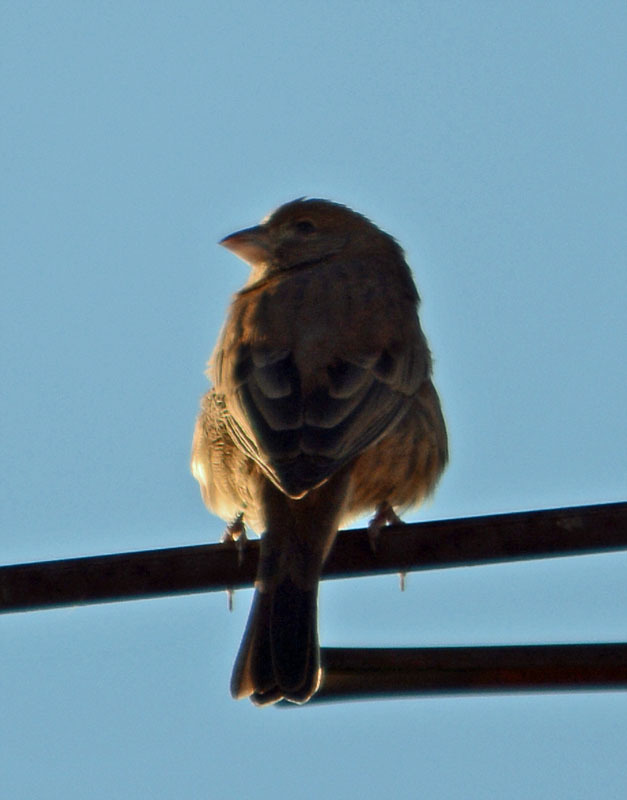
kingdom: Animalia
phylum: Chordata
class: Aves
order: Passeriformes
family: Fringillidae
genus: Haemorhous
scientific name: Haemorhous mexicanus
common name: House finch
